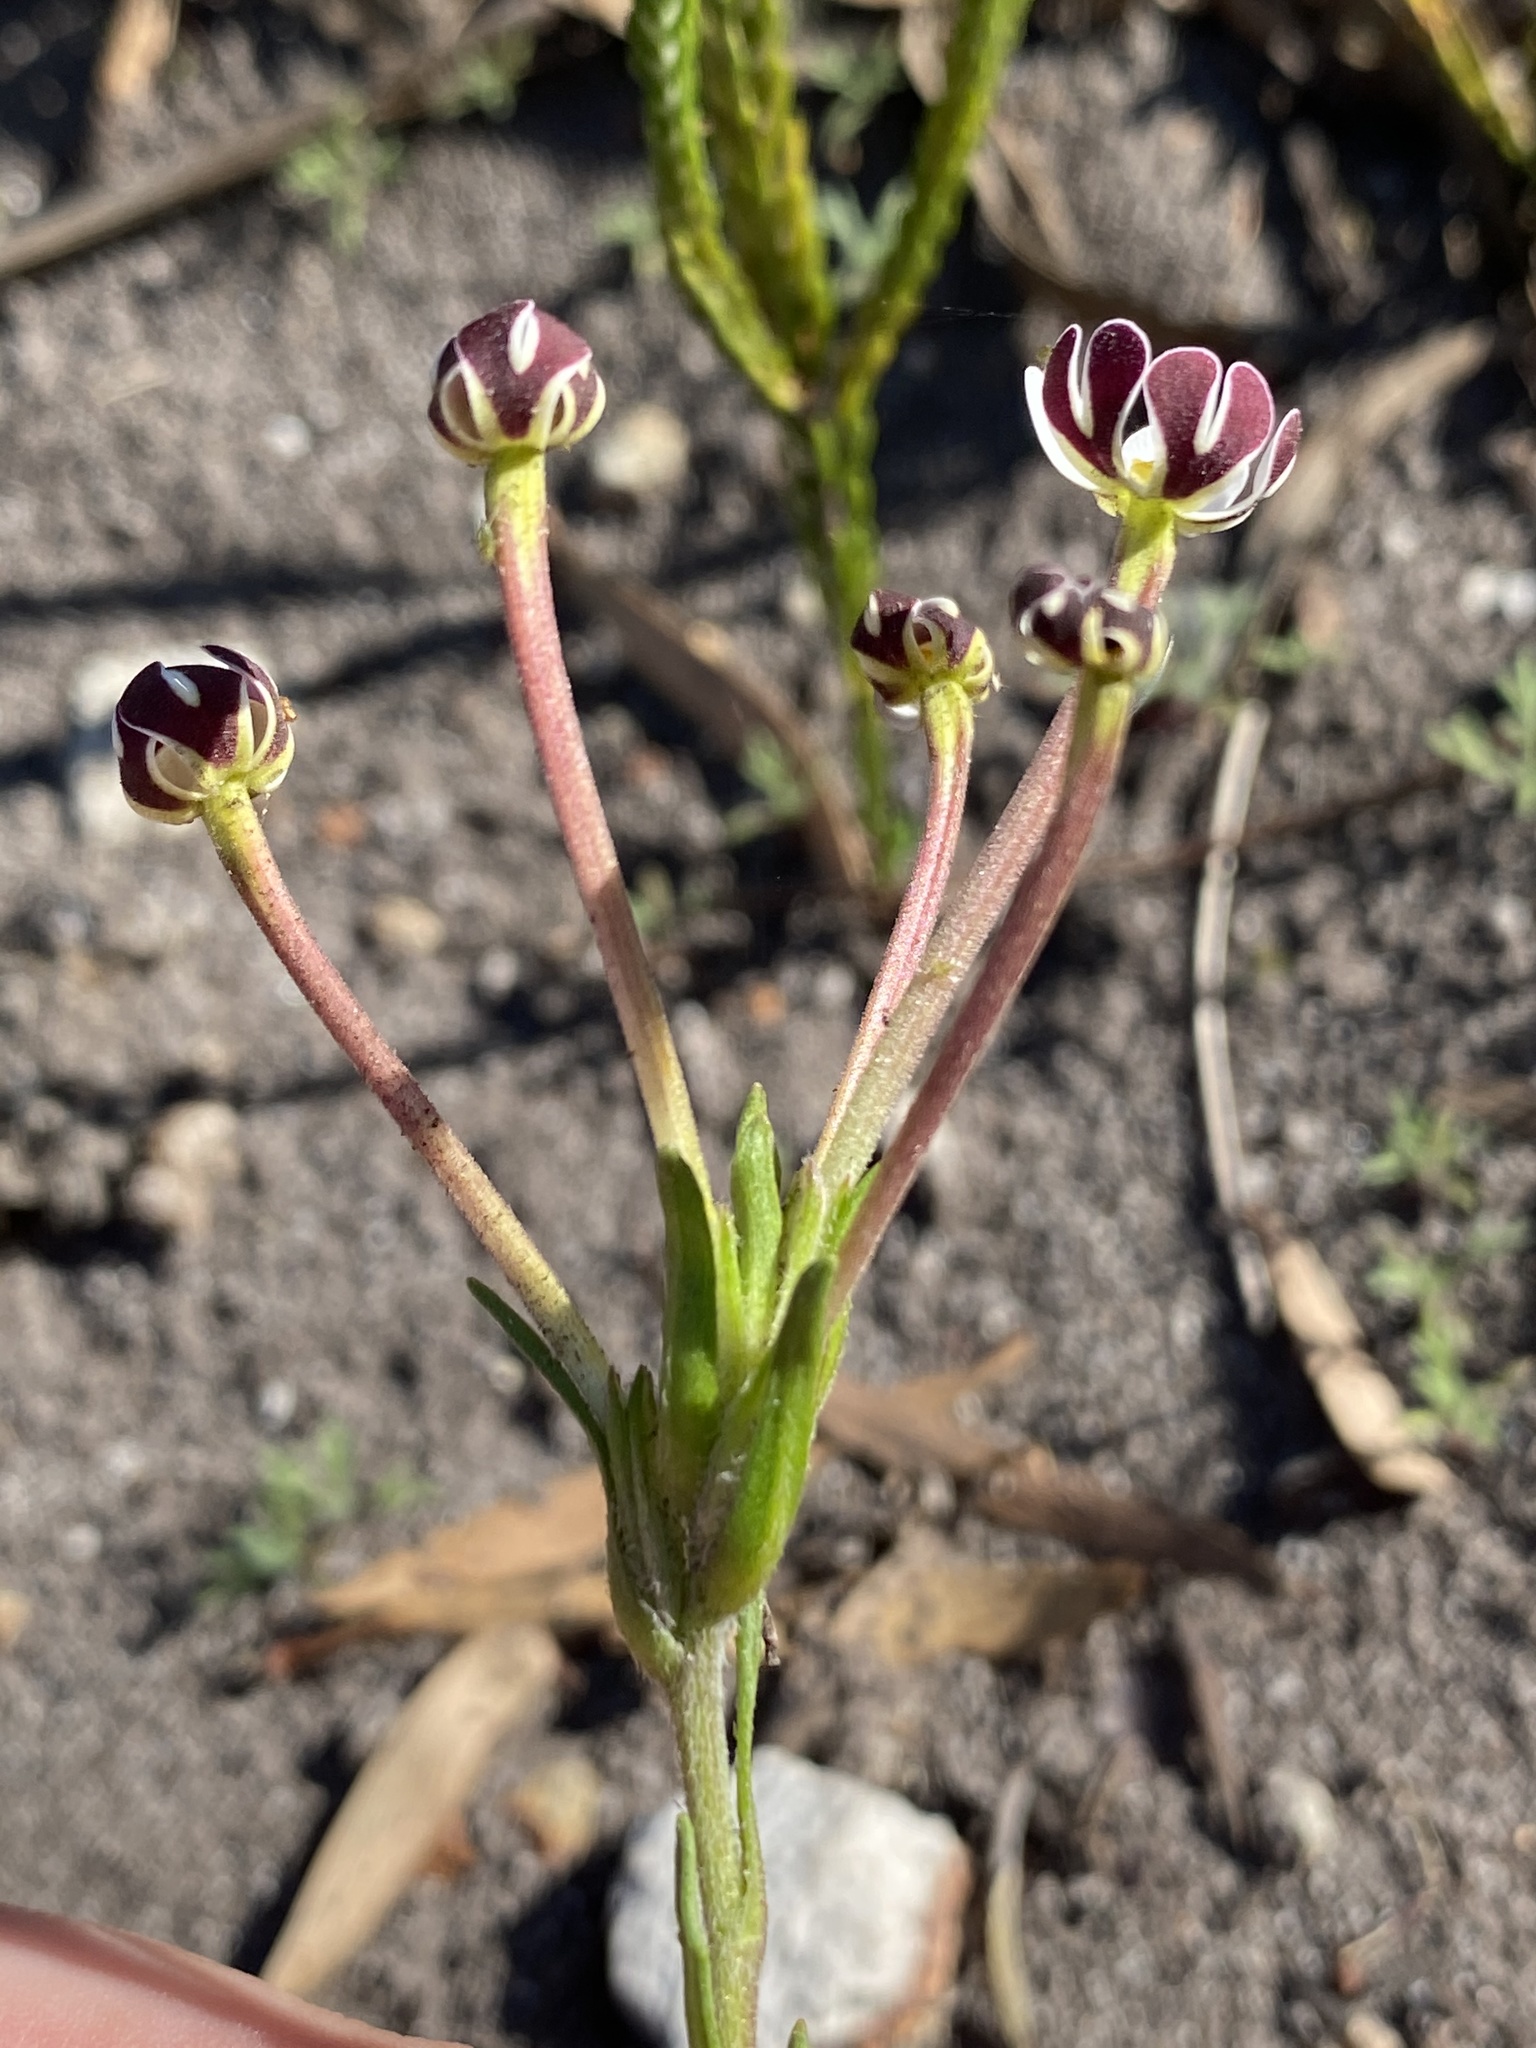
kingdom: Plantae
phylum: Tracheophyta
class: Magnoliopsida
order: Lamiales
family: Scrophulariaceae
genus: Zaluzianskya
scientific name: Zaluzianskya capensis
